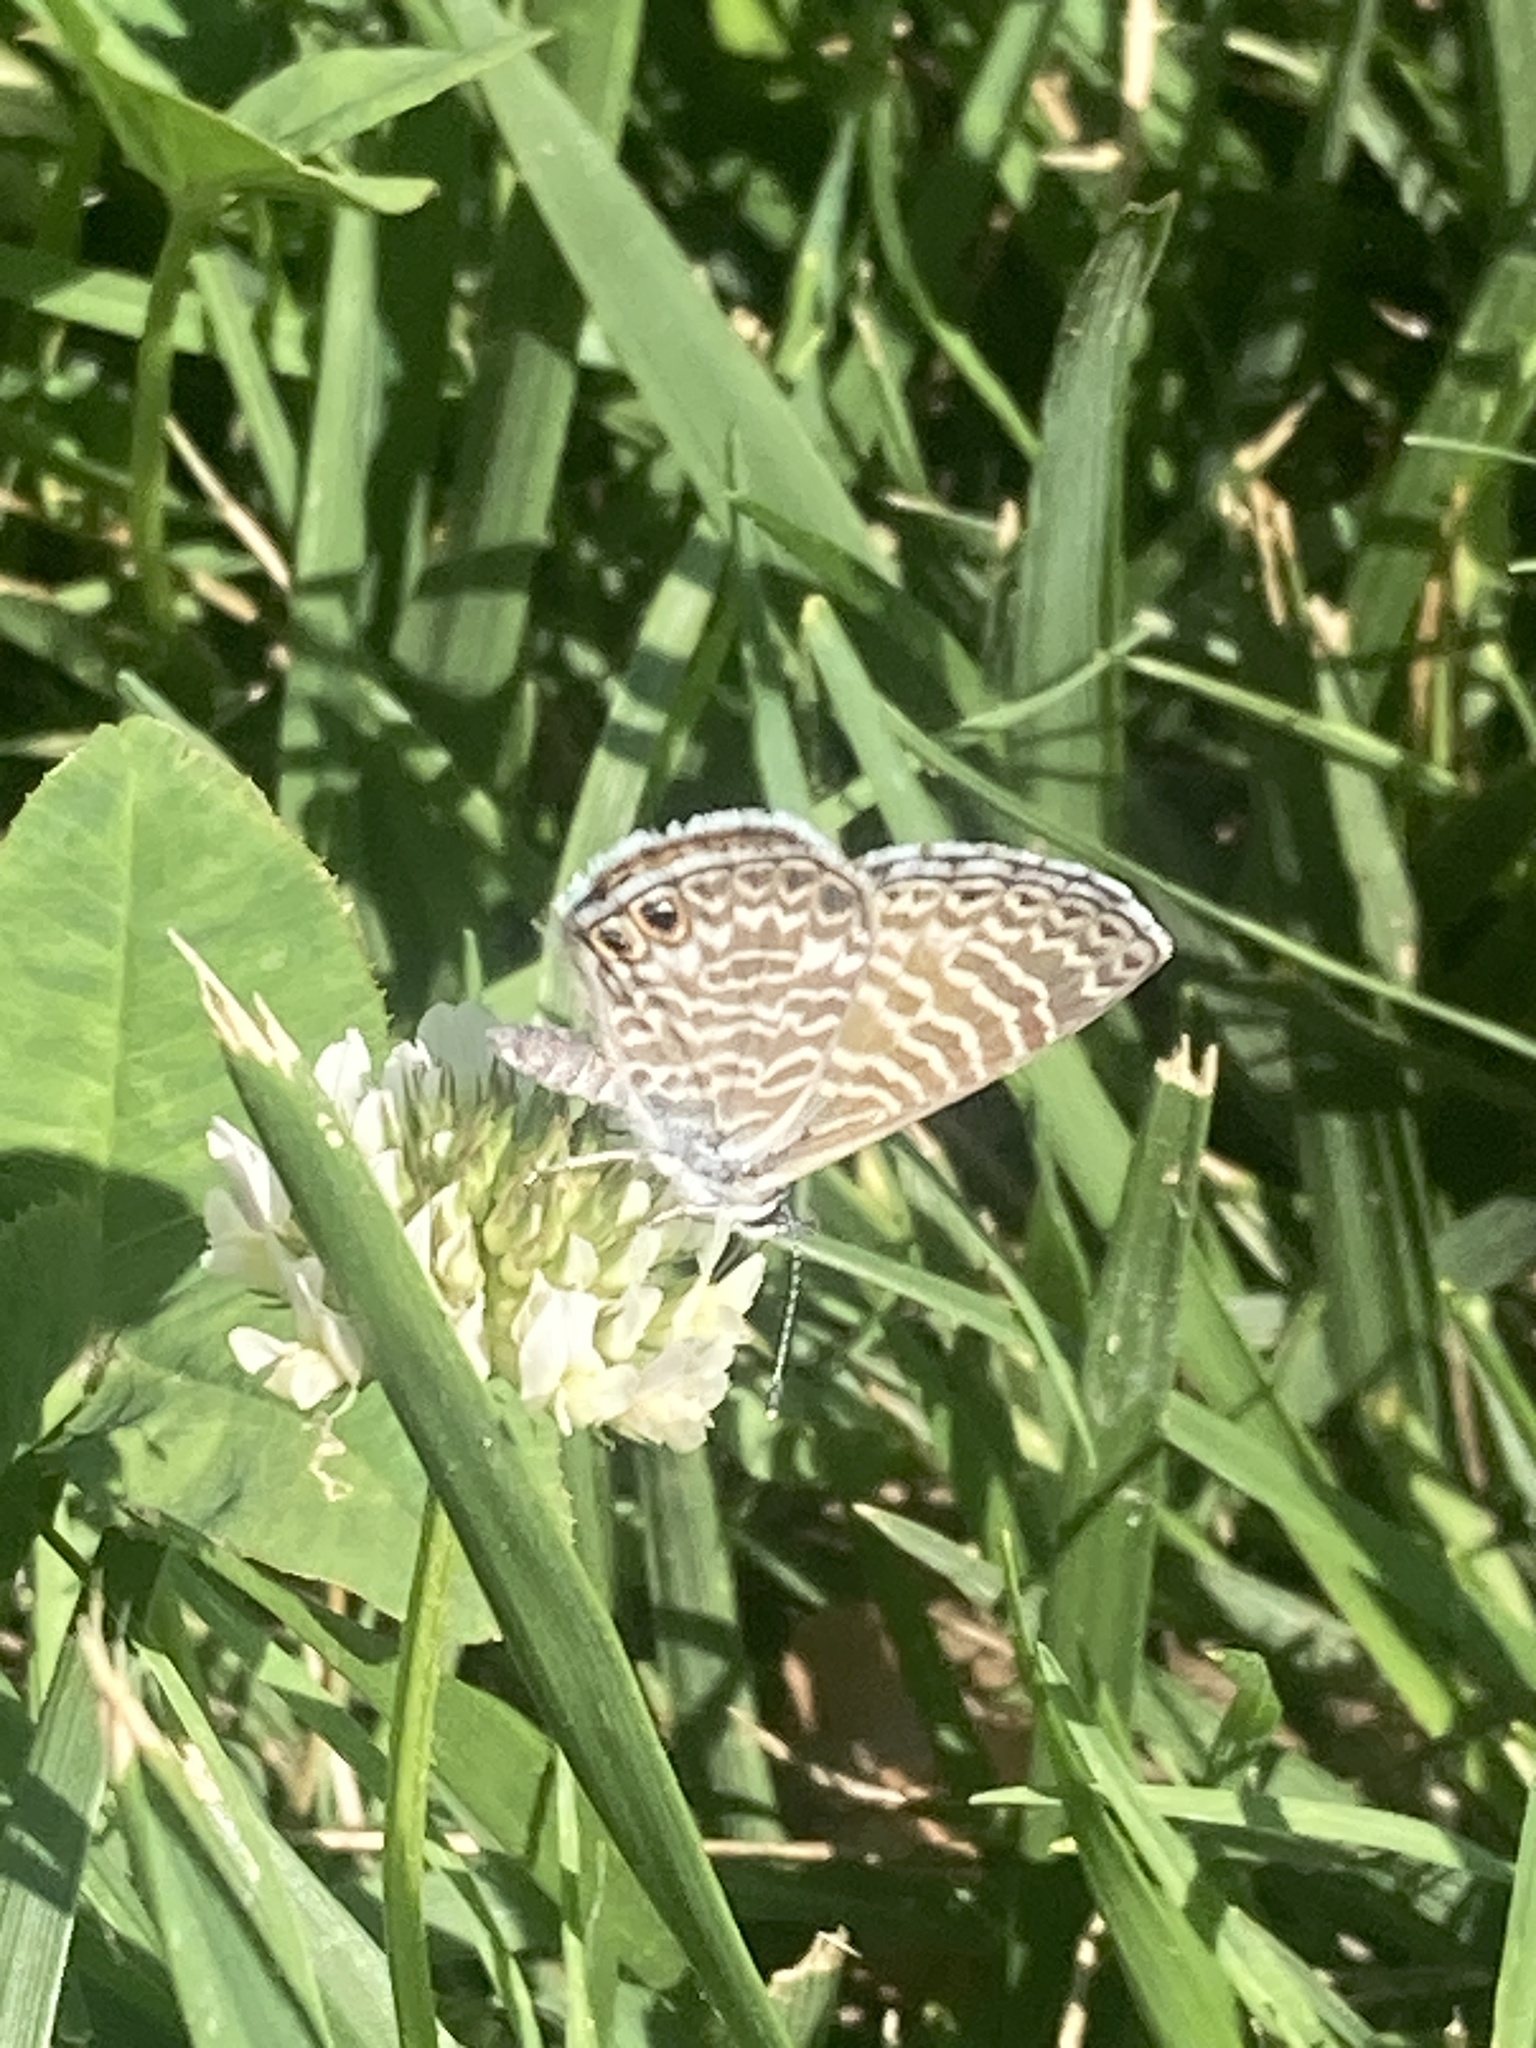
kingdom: Animalia
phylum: Arthropoda
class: Insecta
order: Lepidoptera
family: Lycaenidae
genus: Leptotes
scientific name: Leptotes marina
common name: Marine blue
